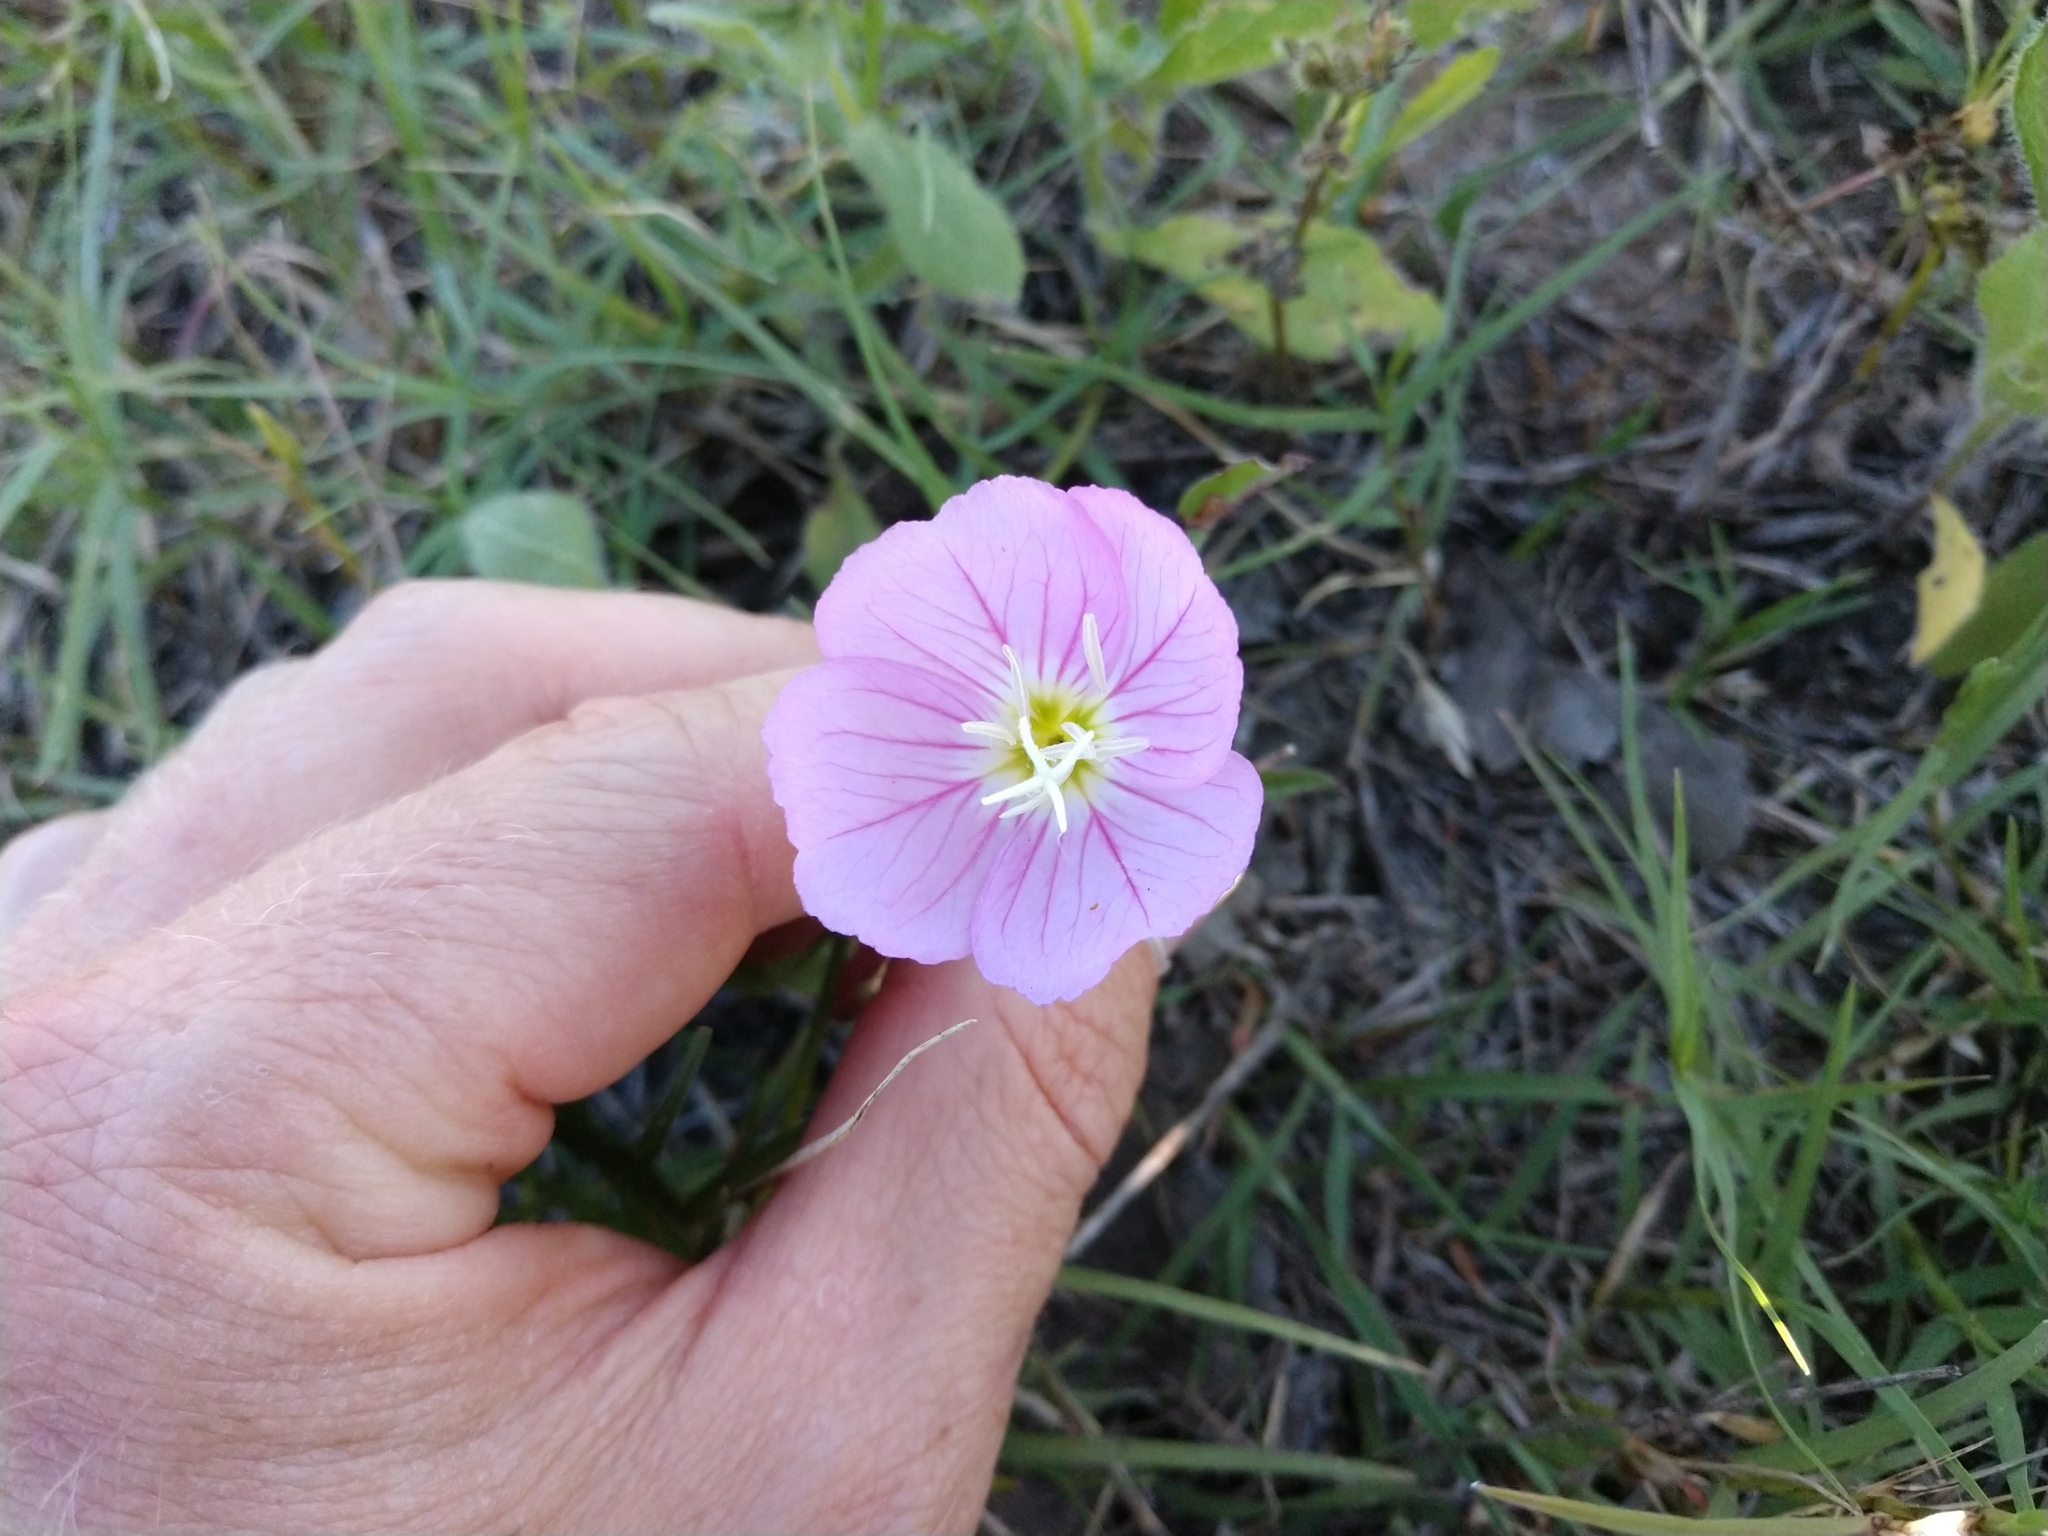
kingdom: Plantae
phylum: Tracheophyta
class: Magnoliopsida
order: Myrtales
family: Onagraceae
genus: Oenothera
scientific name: Oenothera speciosa
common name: White evening-primrose
